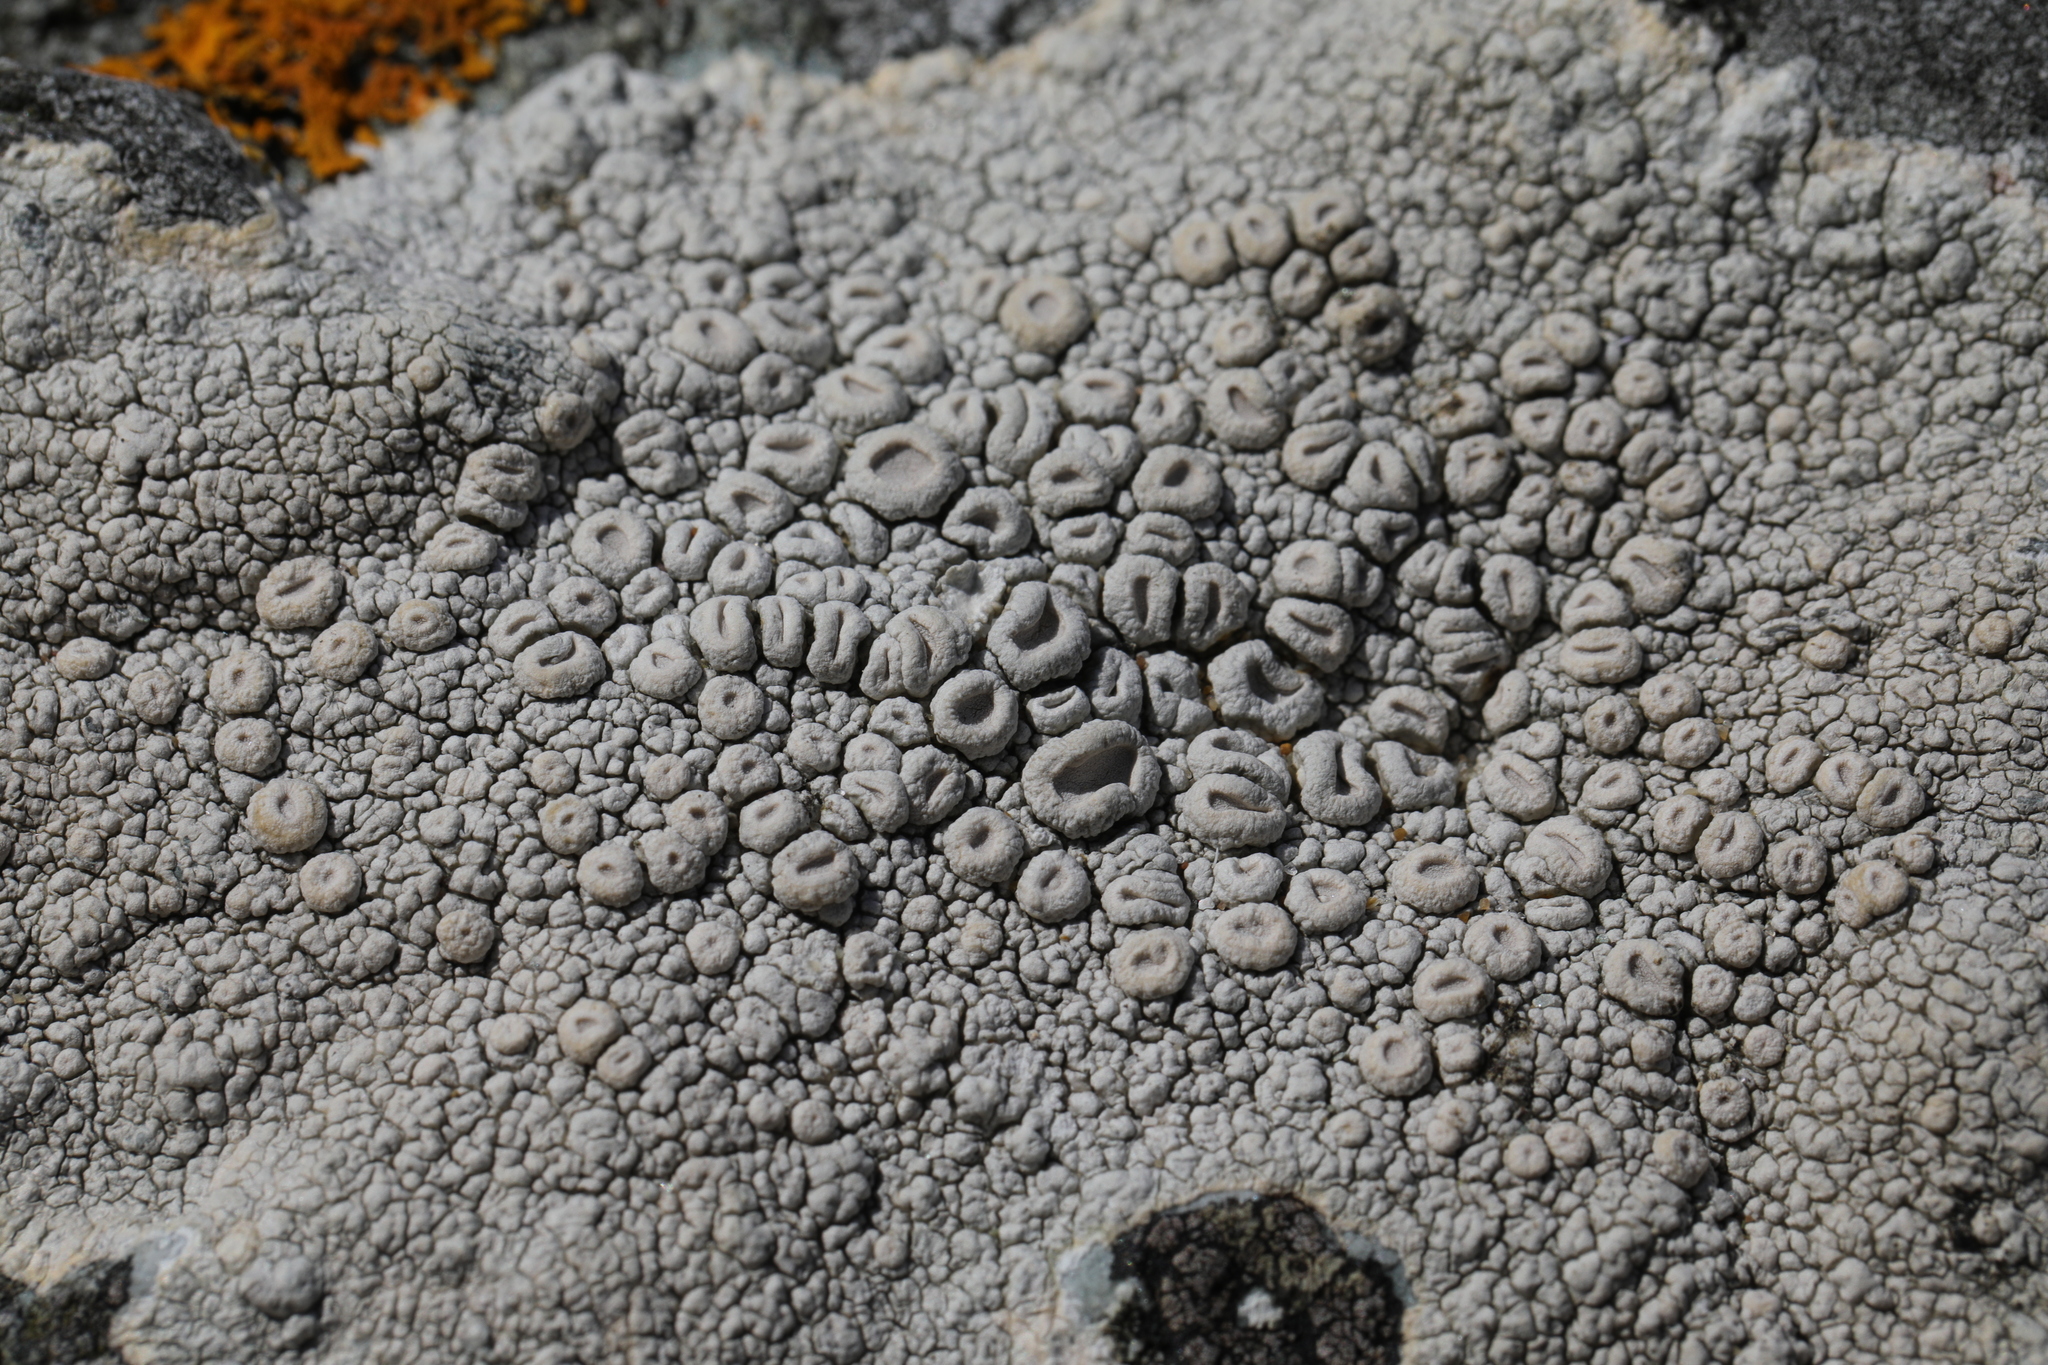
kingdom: Fungi
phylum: Ascomycota
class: Lecanoromycetes
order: Pertusariales
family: Ochrolechiaceae
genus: Ochrolechia
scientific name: Ochrolechia parella
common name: Crab's eye lichen
